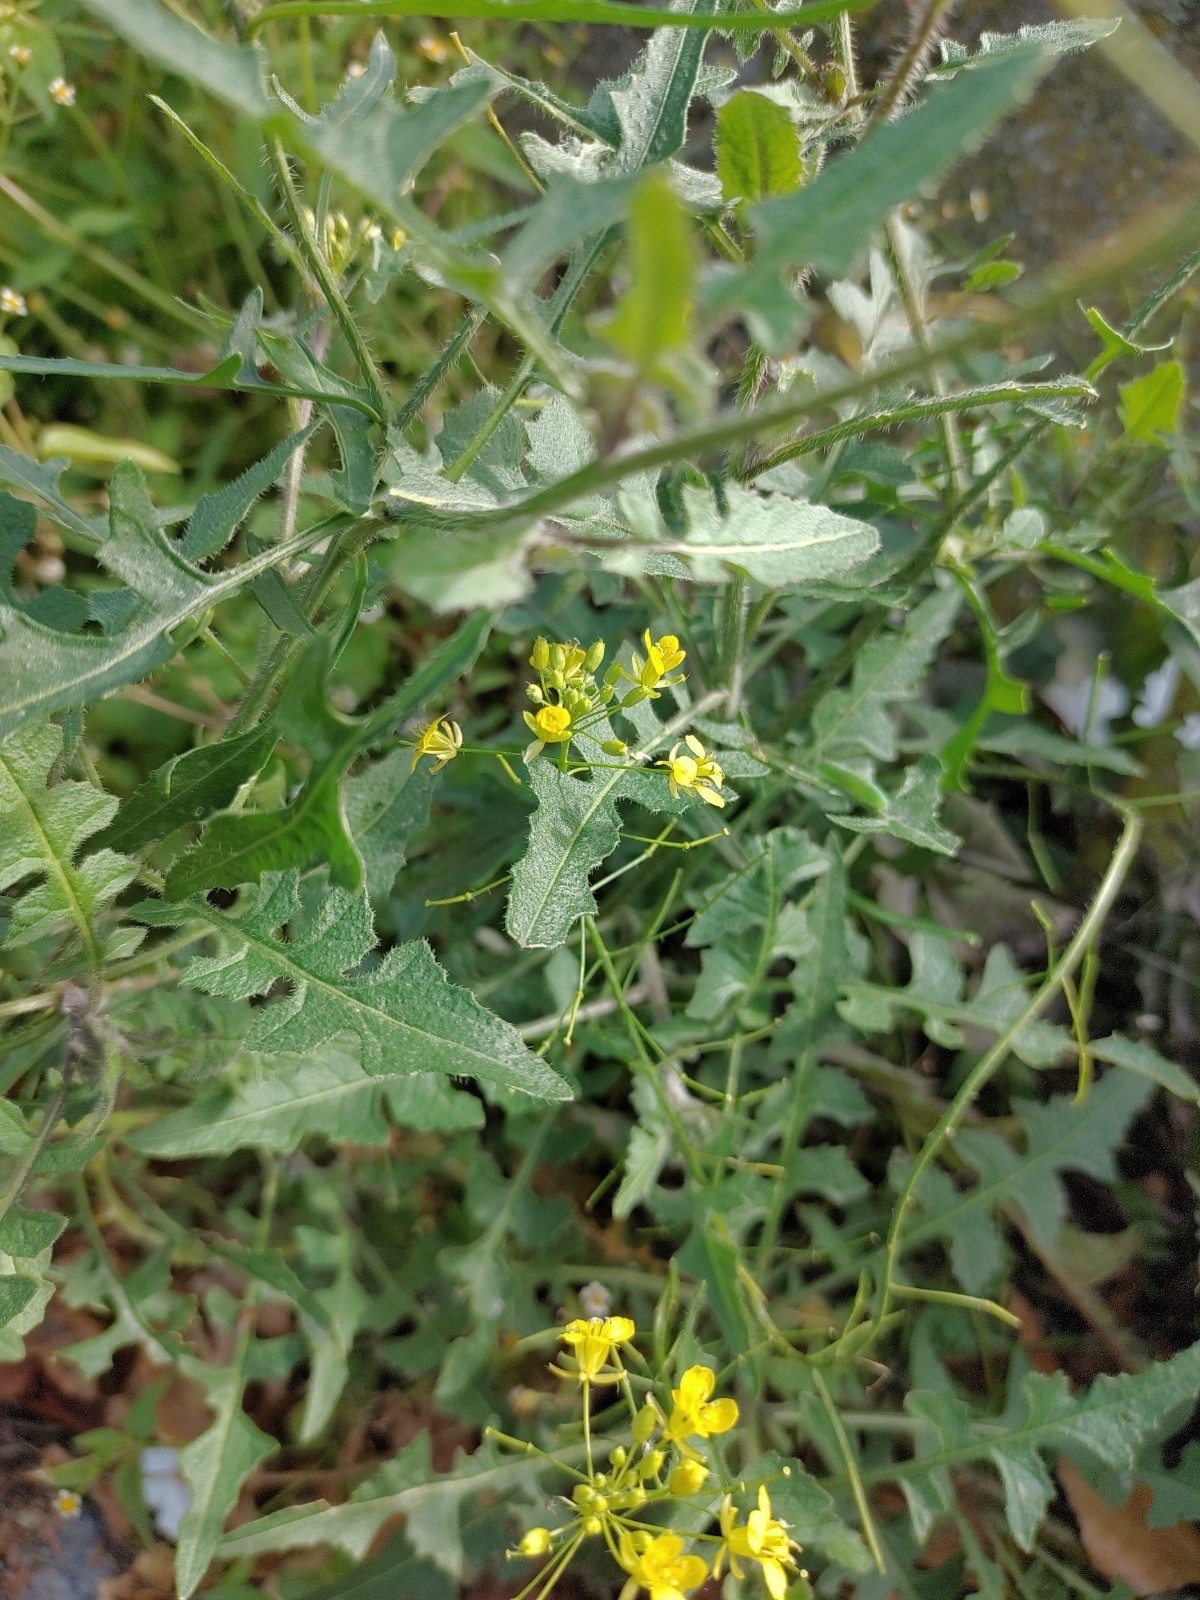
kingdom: Plantae
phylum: Tracheophyta
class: Magnoliopsida
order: Brassicales
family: Brassicaceae
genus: Sisymbrium
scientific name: Sisymbrium loeselii
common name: False london-rocket
